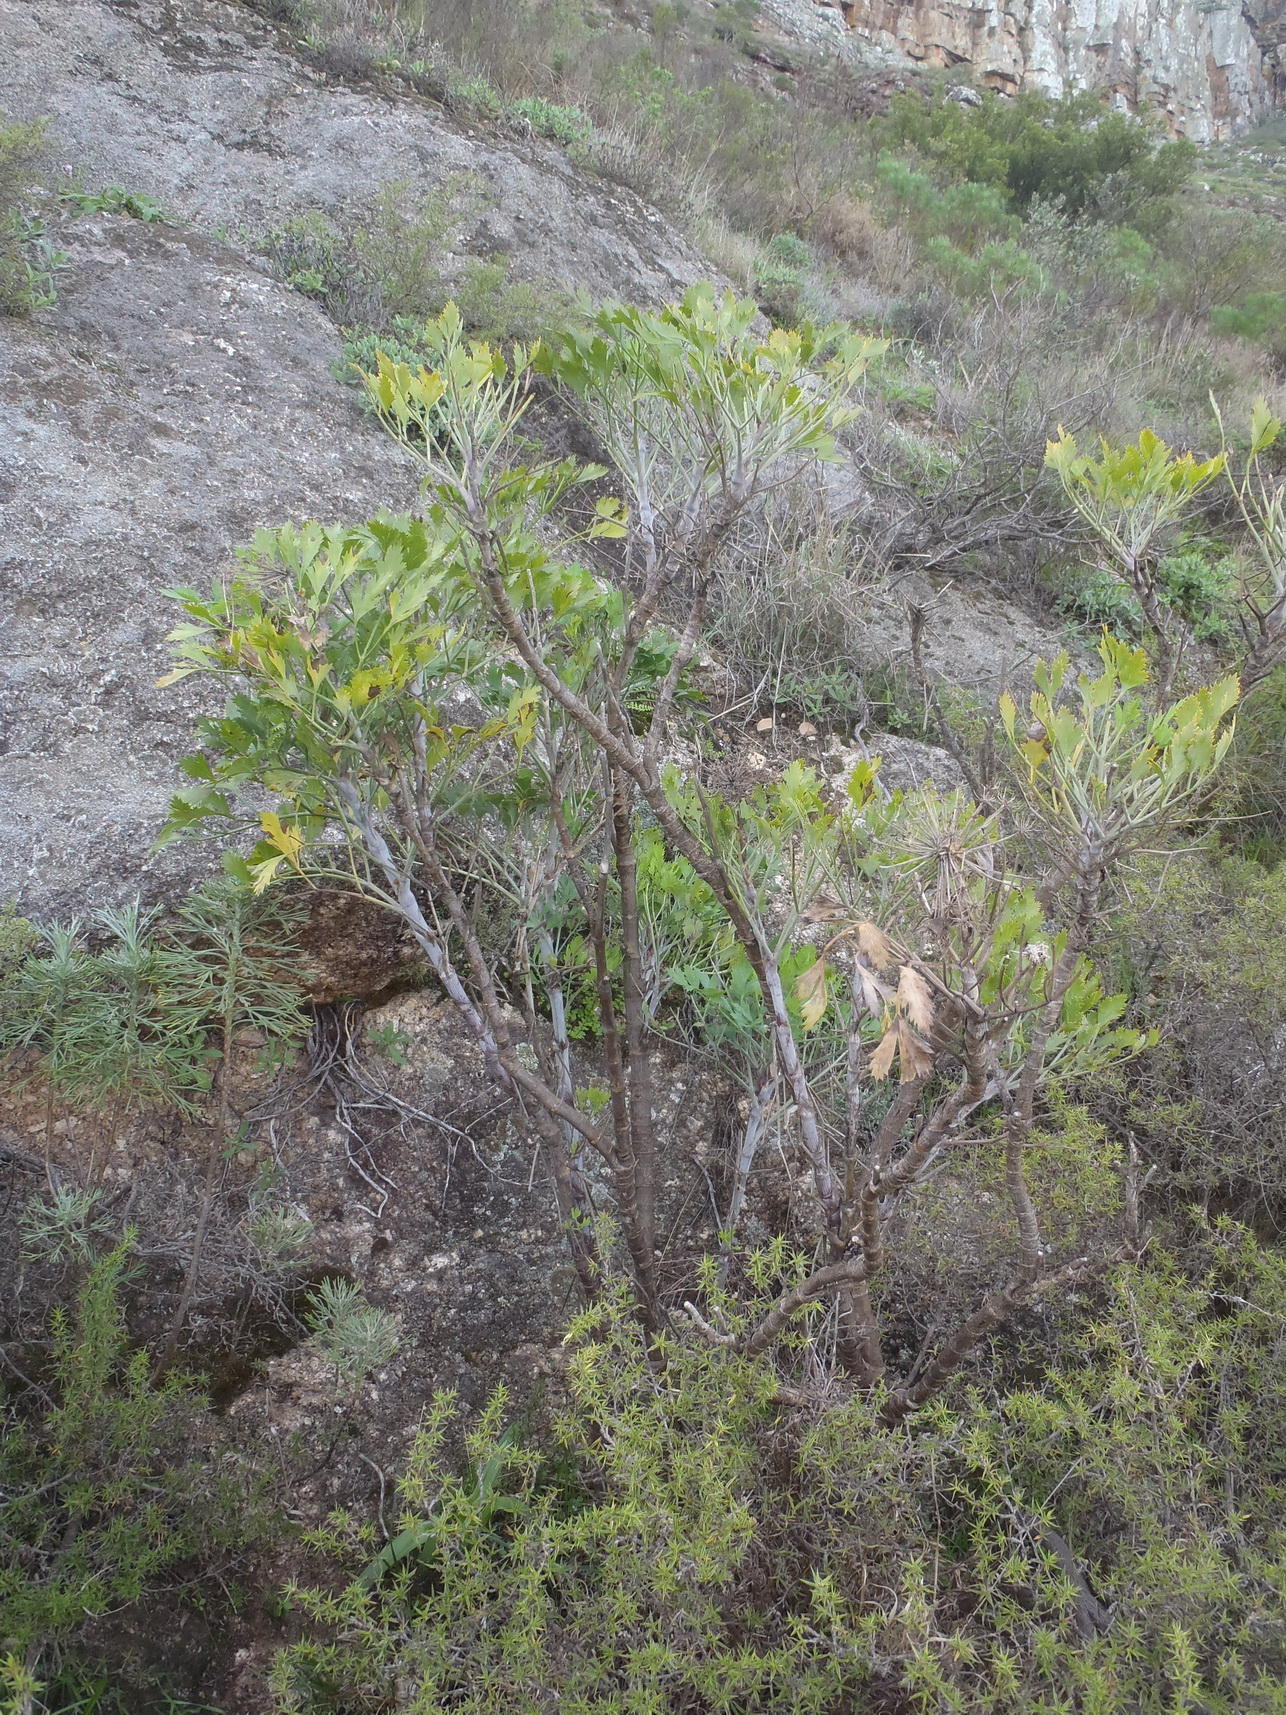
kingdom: Plantae
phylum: Tracheophyta
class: Magnoliopsida
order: Apiales
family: Apiaceae
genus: Notobubon
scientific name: Notobubon galbanum
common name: Blisterbush
